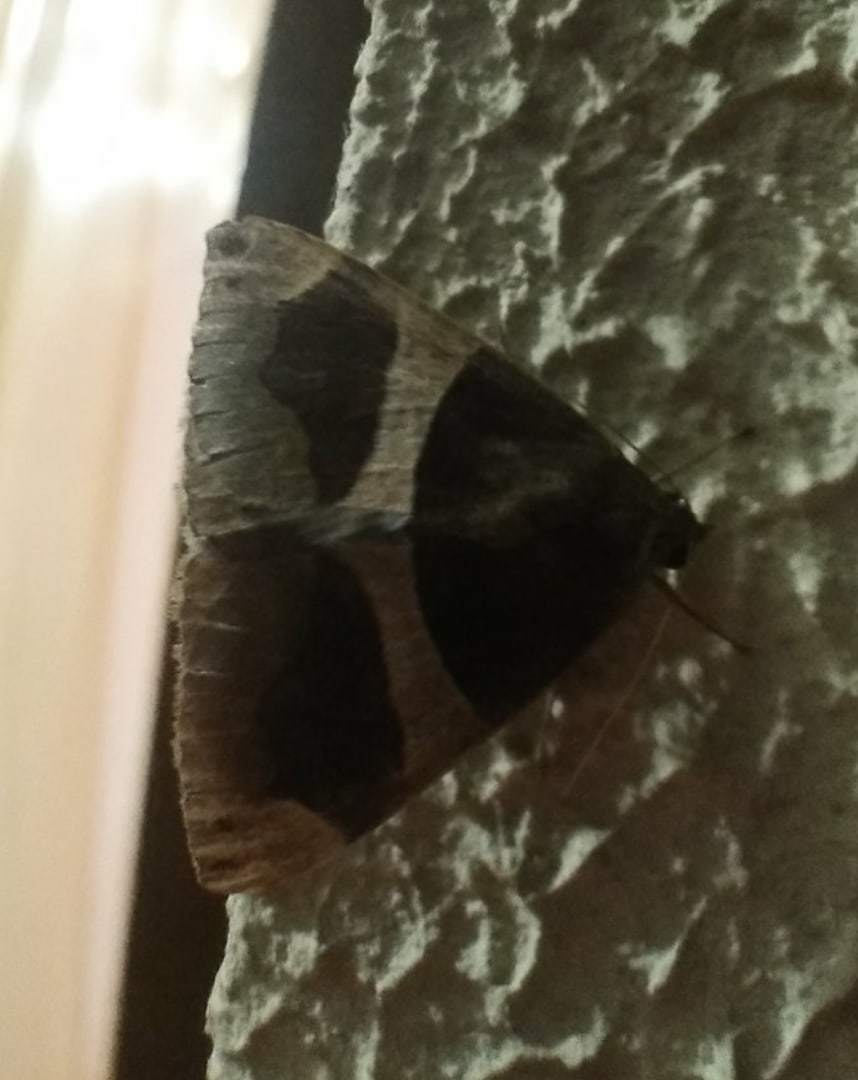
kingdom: Animalia
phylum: Arthropoda
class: Insecta
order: Lepidoptera
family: Erebidae
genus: Dysgonia
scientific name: Dysgonia algira
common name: Passenger
